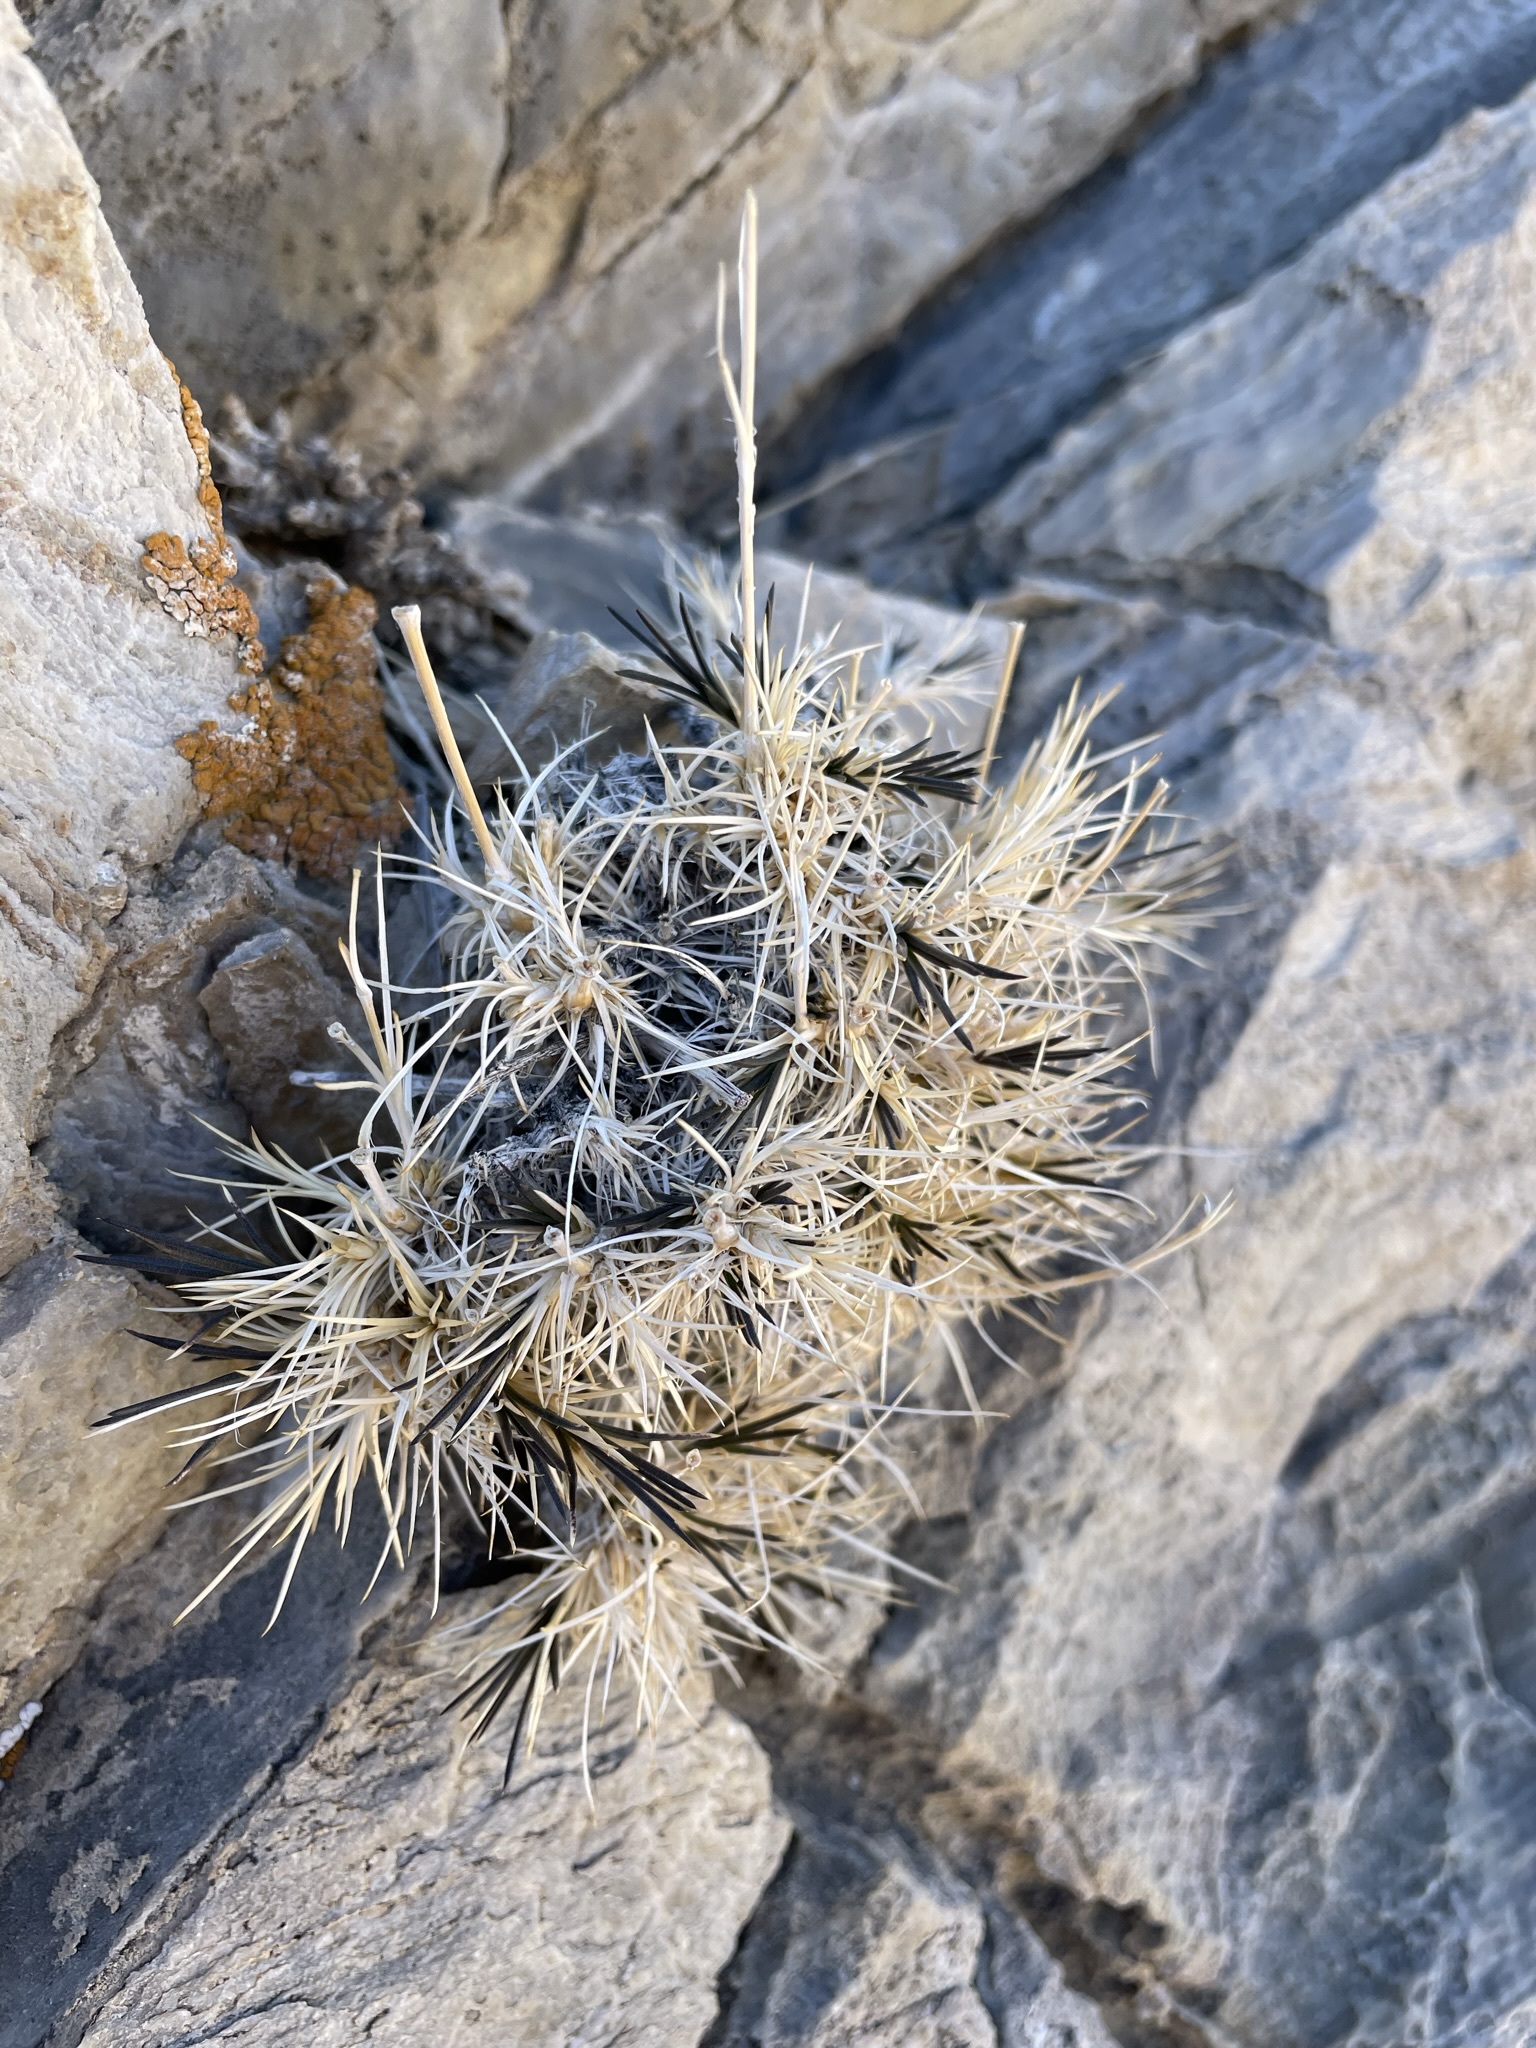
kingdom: Plantae
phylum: Tracheophyta
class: Magnoliopsida
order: Caryophyllales
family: Caryophyllaceae
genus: Eremogone
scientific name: Eremogone macradenia
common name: Mohave sandwort
